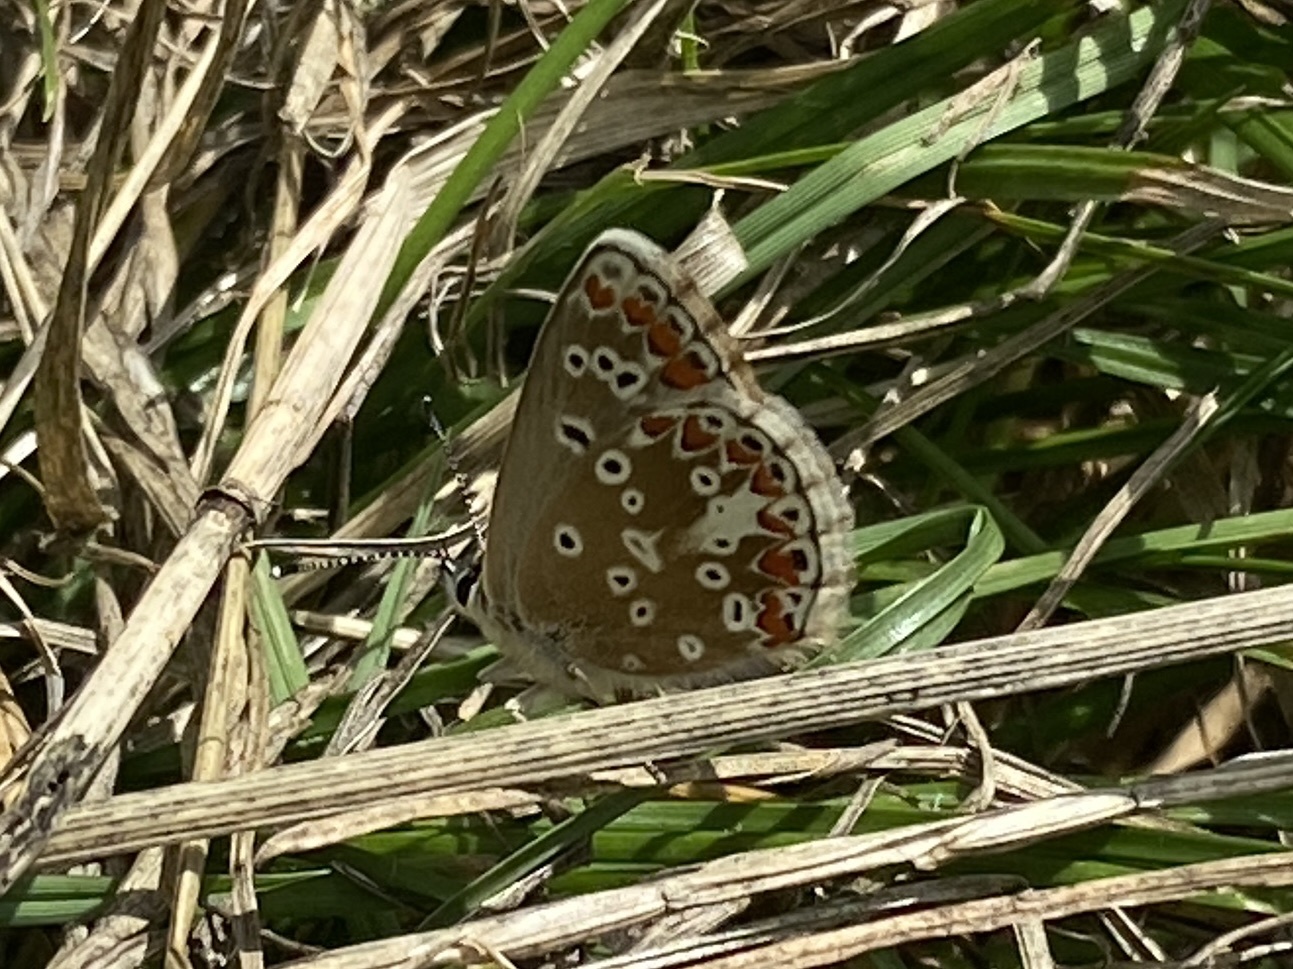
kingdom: Animalia
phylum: Arthropoda
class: Insecta
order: Lepidoptera
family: Lycaenidae
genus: Aricia
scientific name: Aricia agestis
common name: Brown argus
